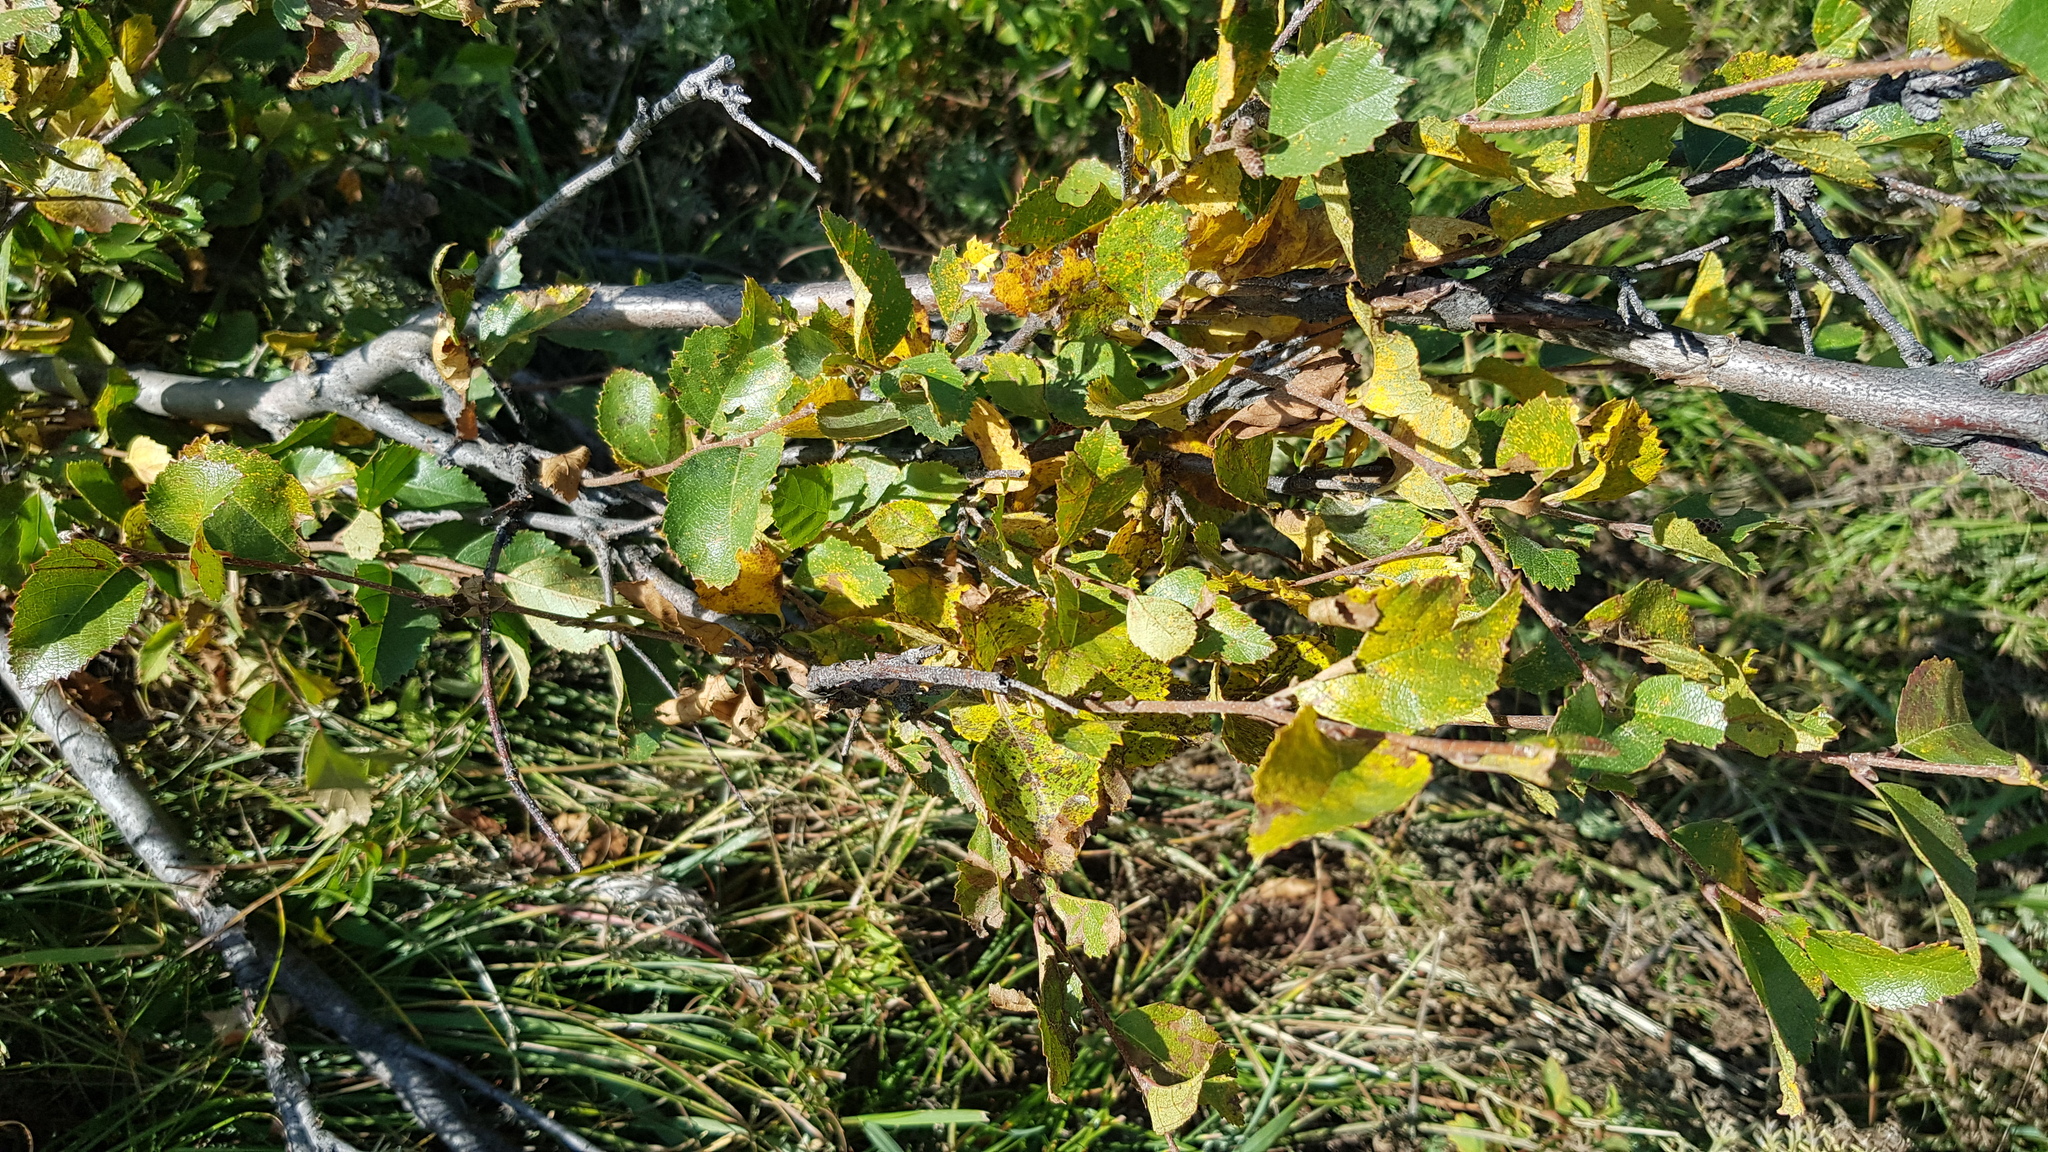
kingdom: Plantae
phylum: Tracheophyta
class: Magnoliopsida
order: Fagales
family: Betulaceae
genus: Betula
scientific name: Betula humilis
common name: Shrubby birch
